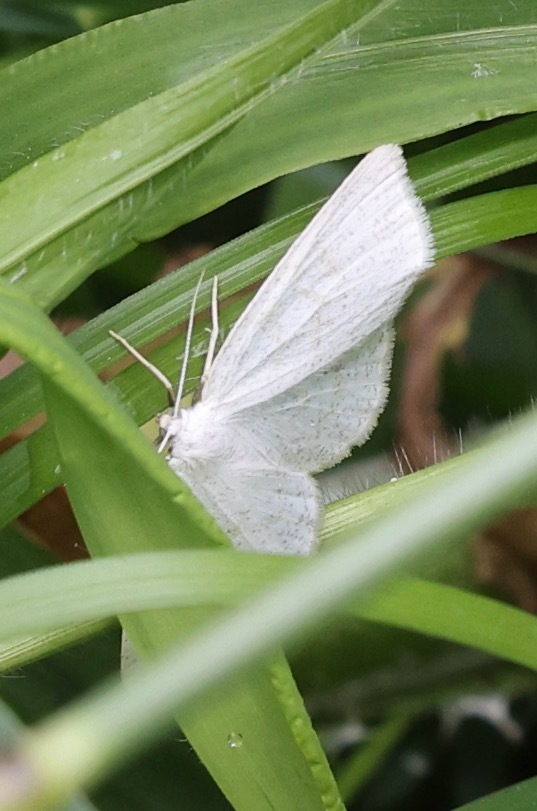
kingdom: Animalia
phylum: Arthropoda
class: Insecta
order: Lepidoptera
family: Geometridae
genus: Cabera
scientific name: Cabera exanthemata
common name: Common wave
